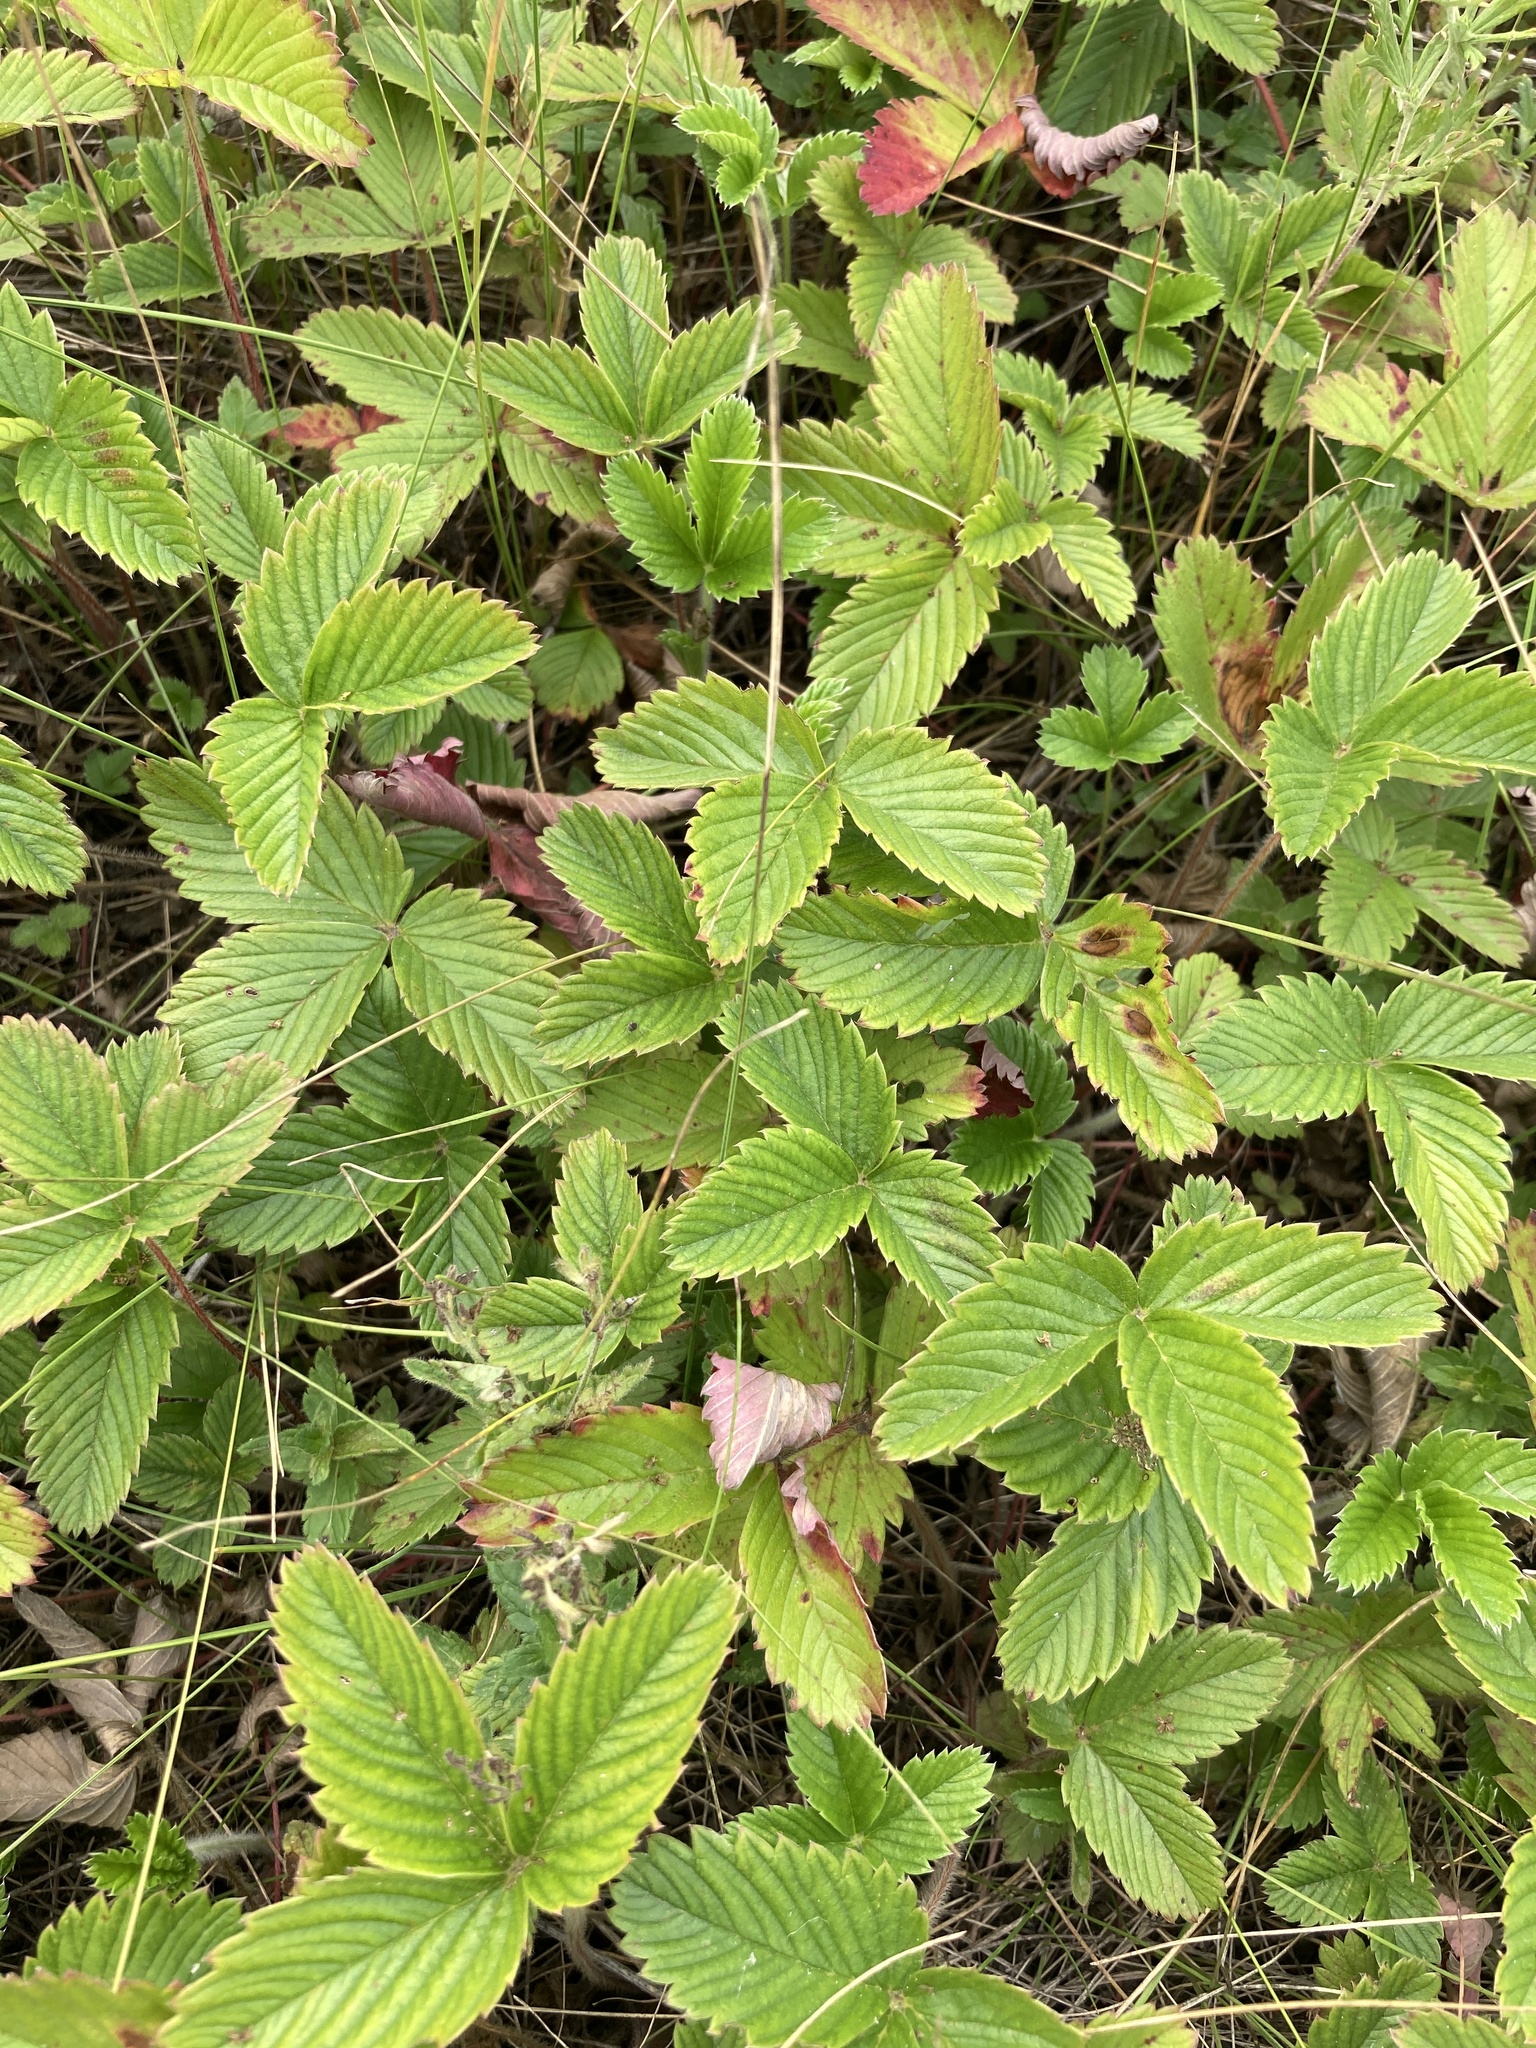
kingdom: Plantae
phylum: Tracheophyta
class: Magnoliopsida
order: Rosales
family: Rosaceae
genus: Fragaria
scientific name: Fragaria viridis
